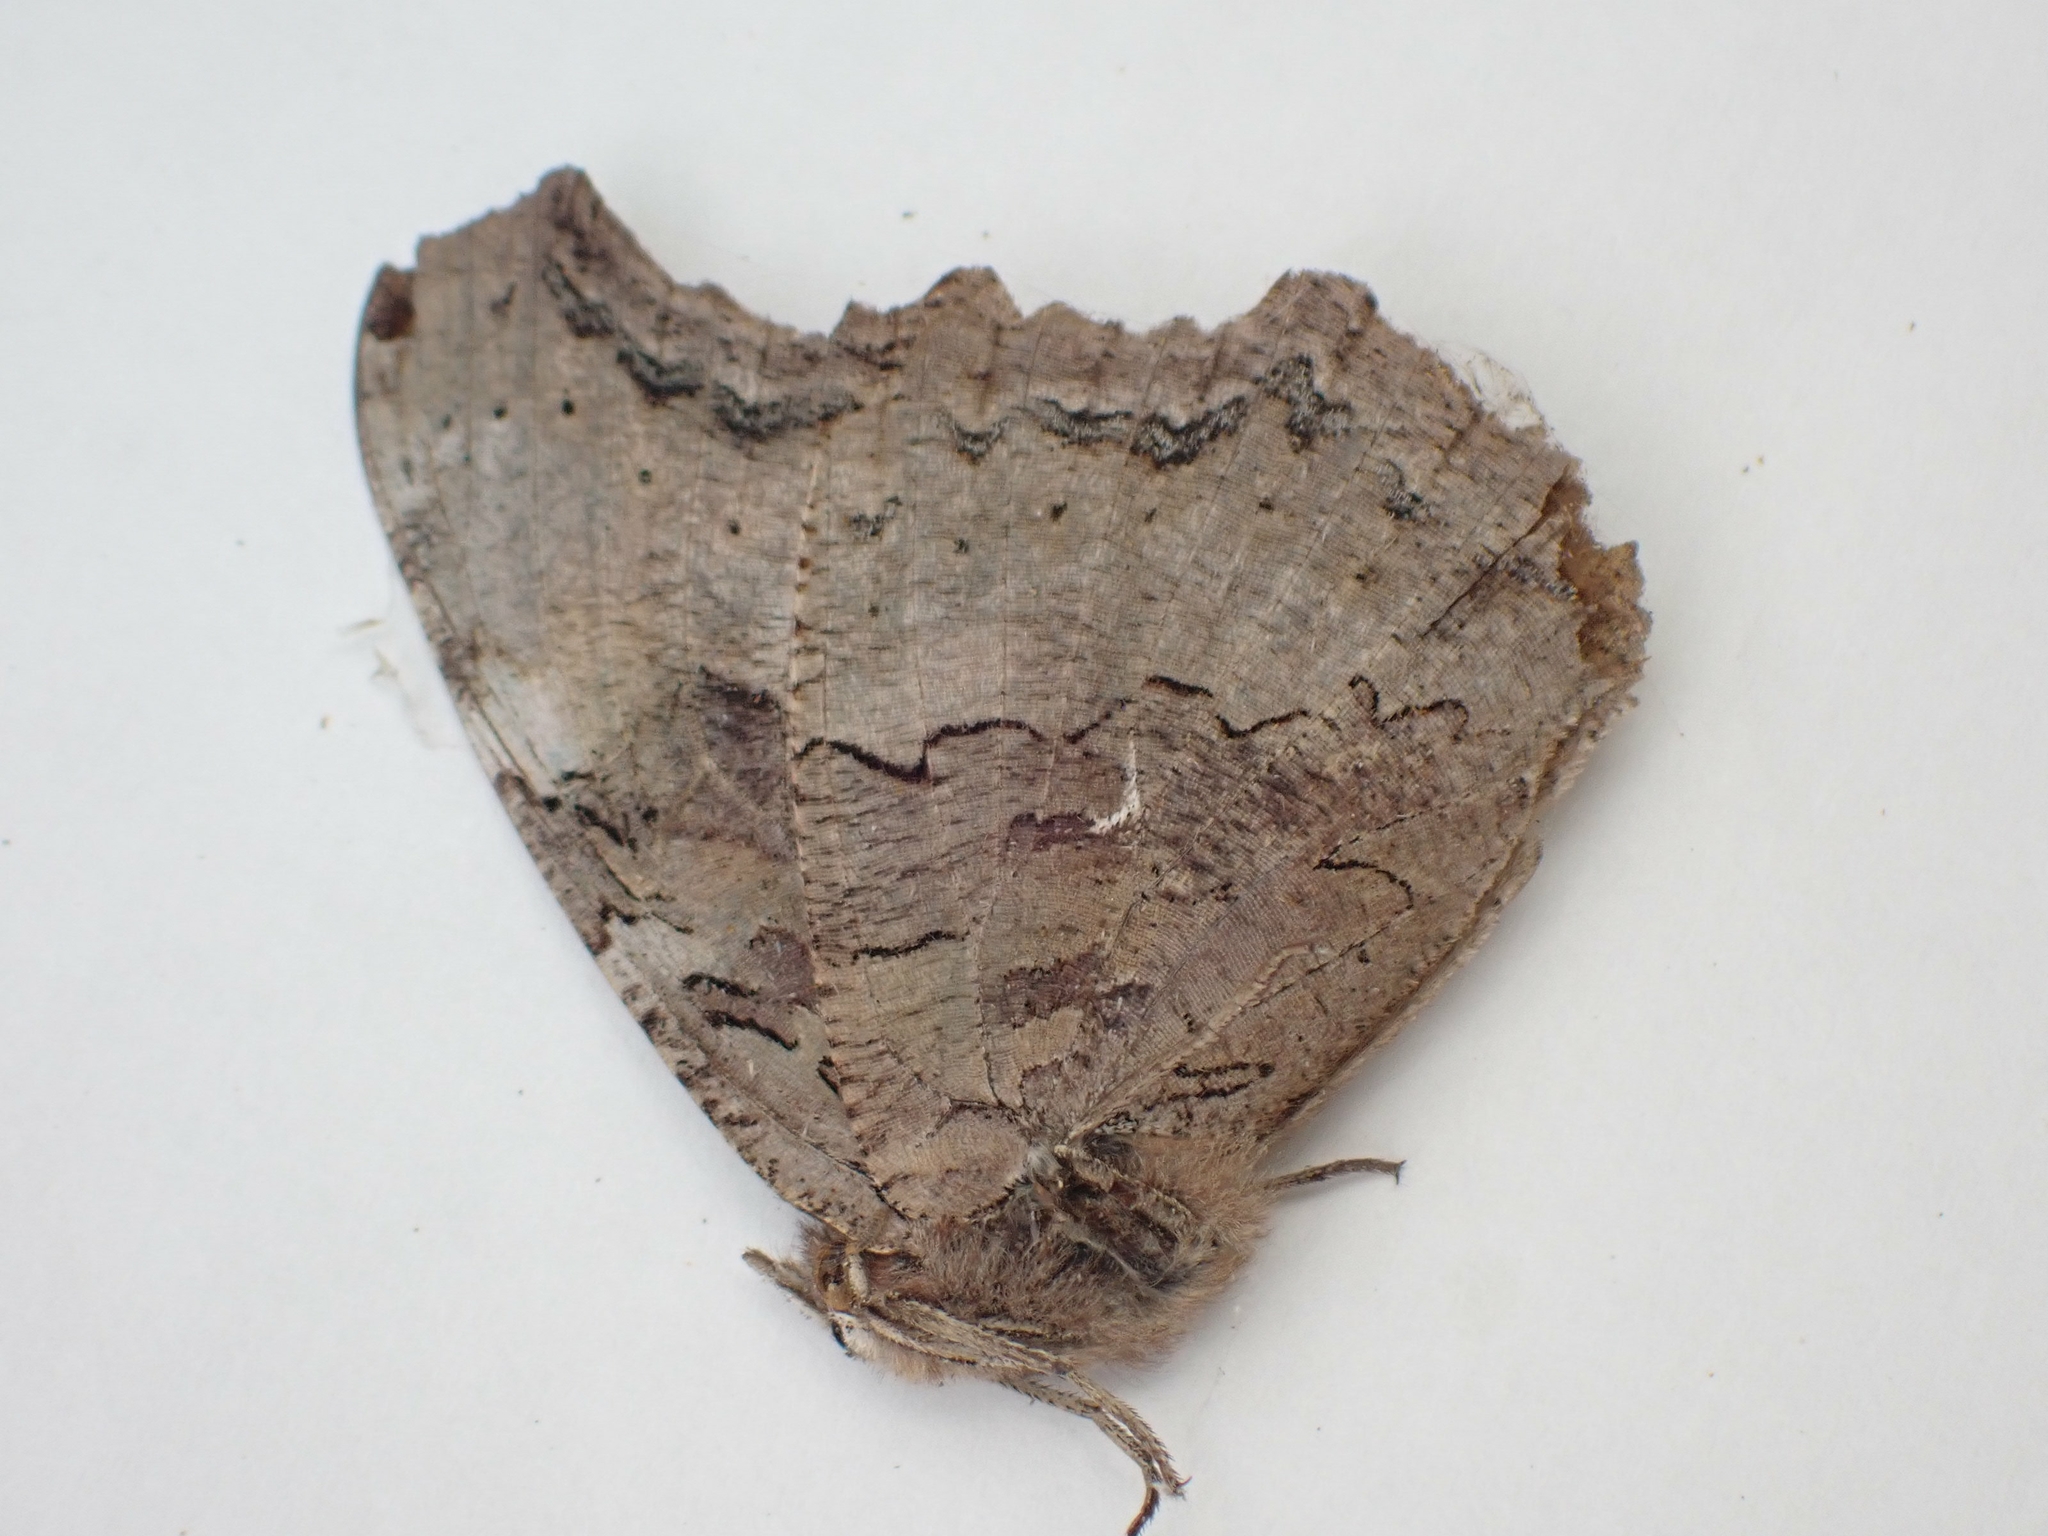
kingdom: Animalia
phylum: Arthropoda
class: Insecta
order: Lepidoptera
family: Nymphalidae
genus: Polygonia
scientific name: Polygonia vaualbum
